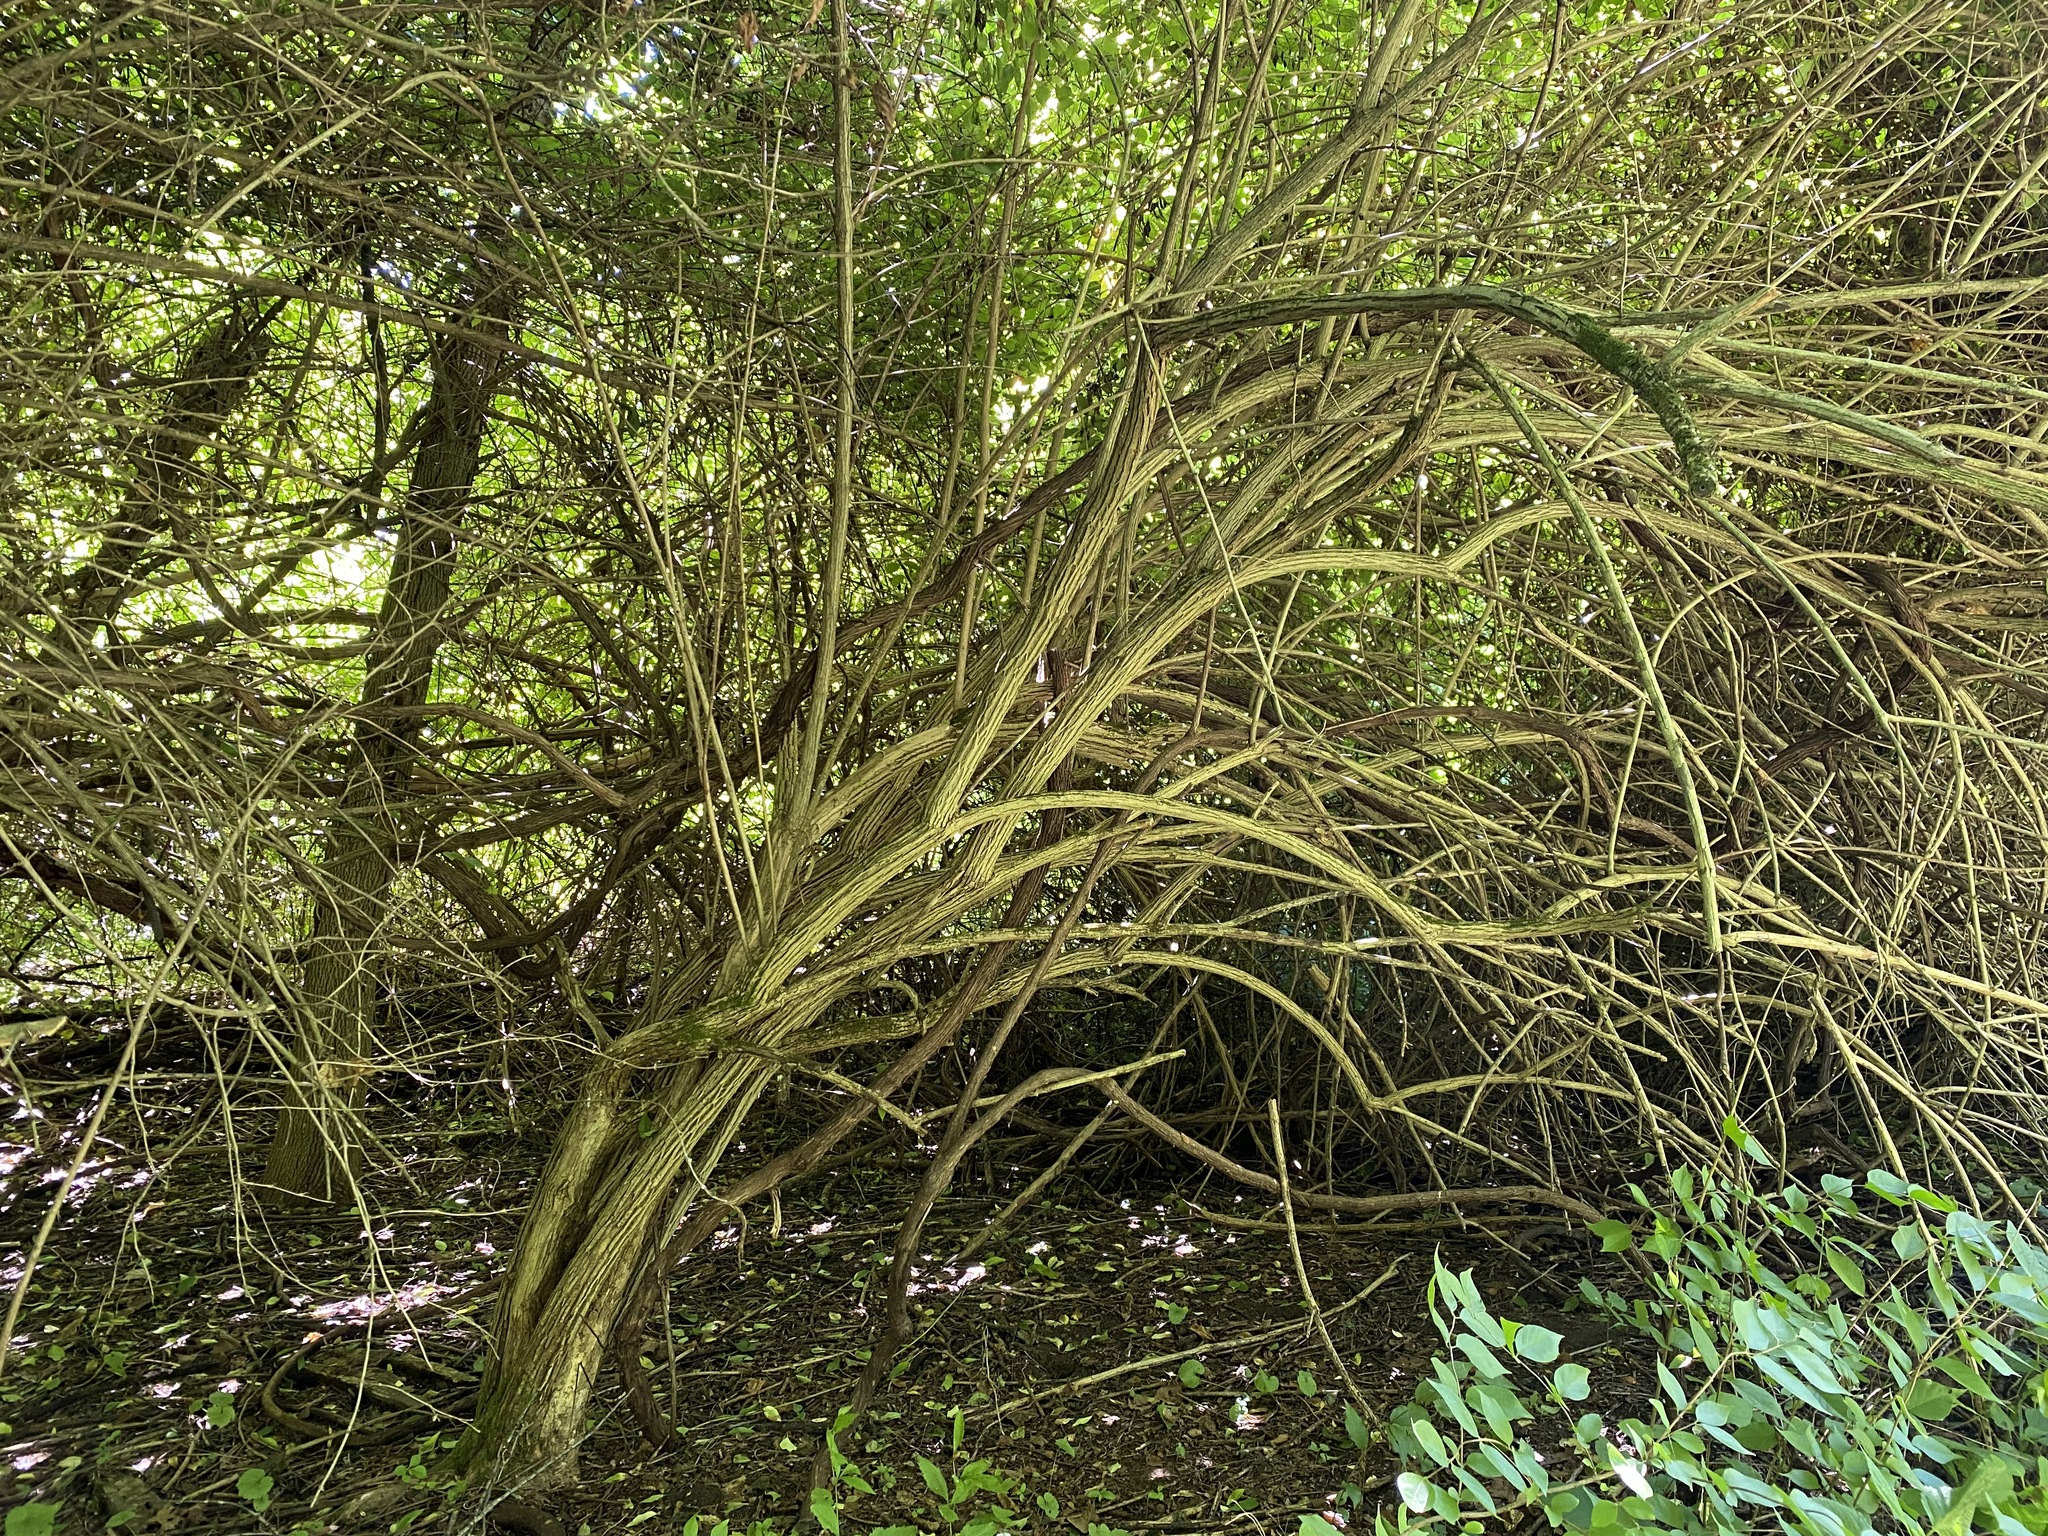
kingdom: Plantae
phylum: Tracheophyta
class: Magnoliopsida
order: Dipsacales
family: Caprifoliaceae
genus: Lonicera
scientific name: Lonicera maackii
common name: Amur honeysuckle
